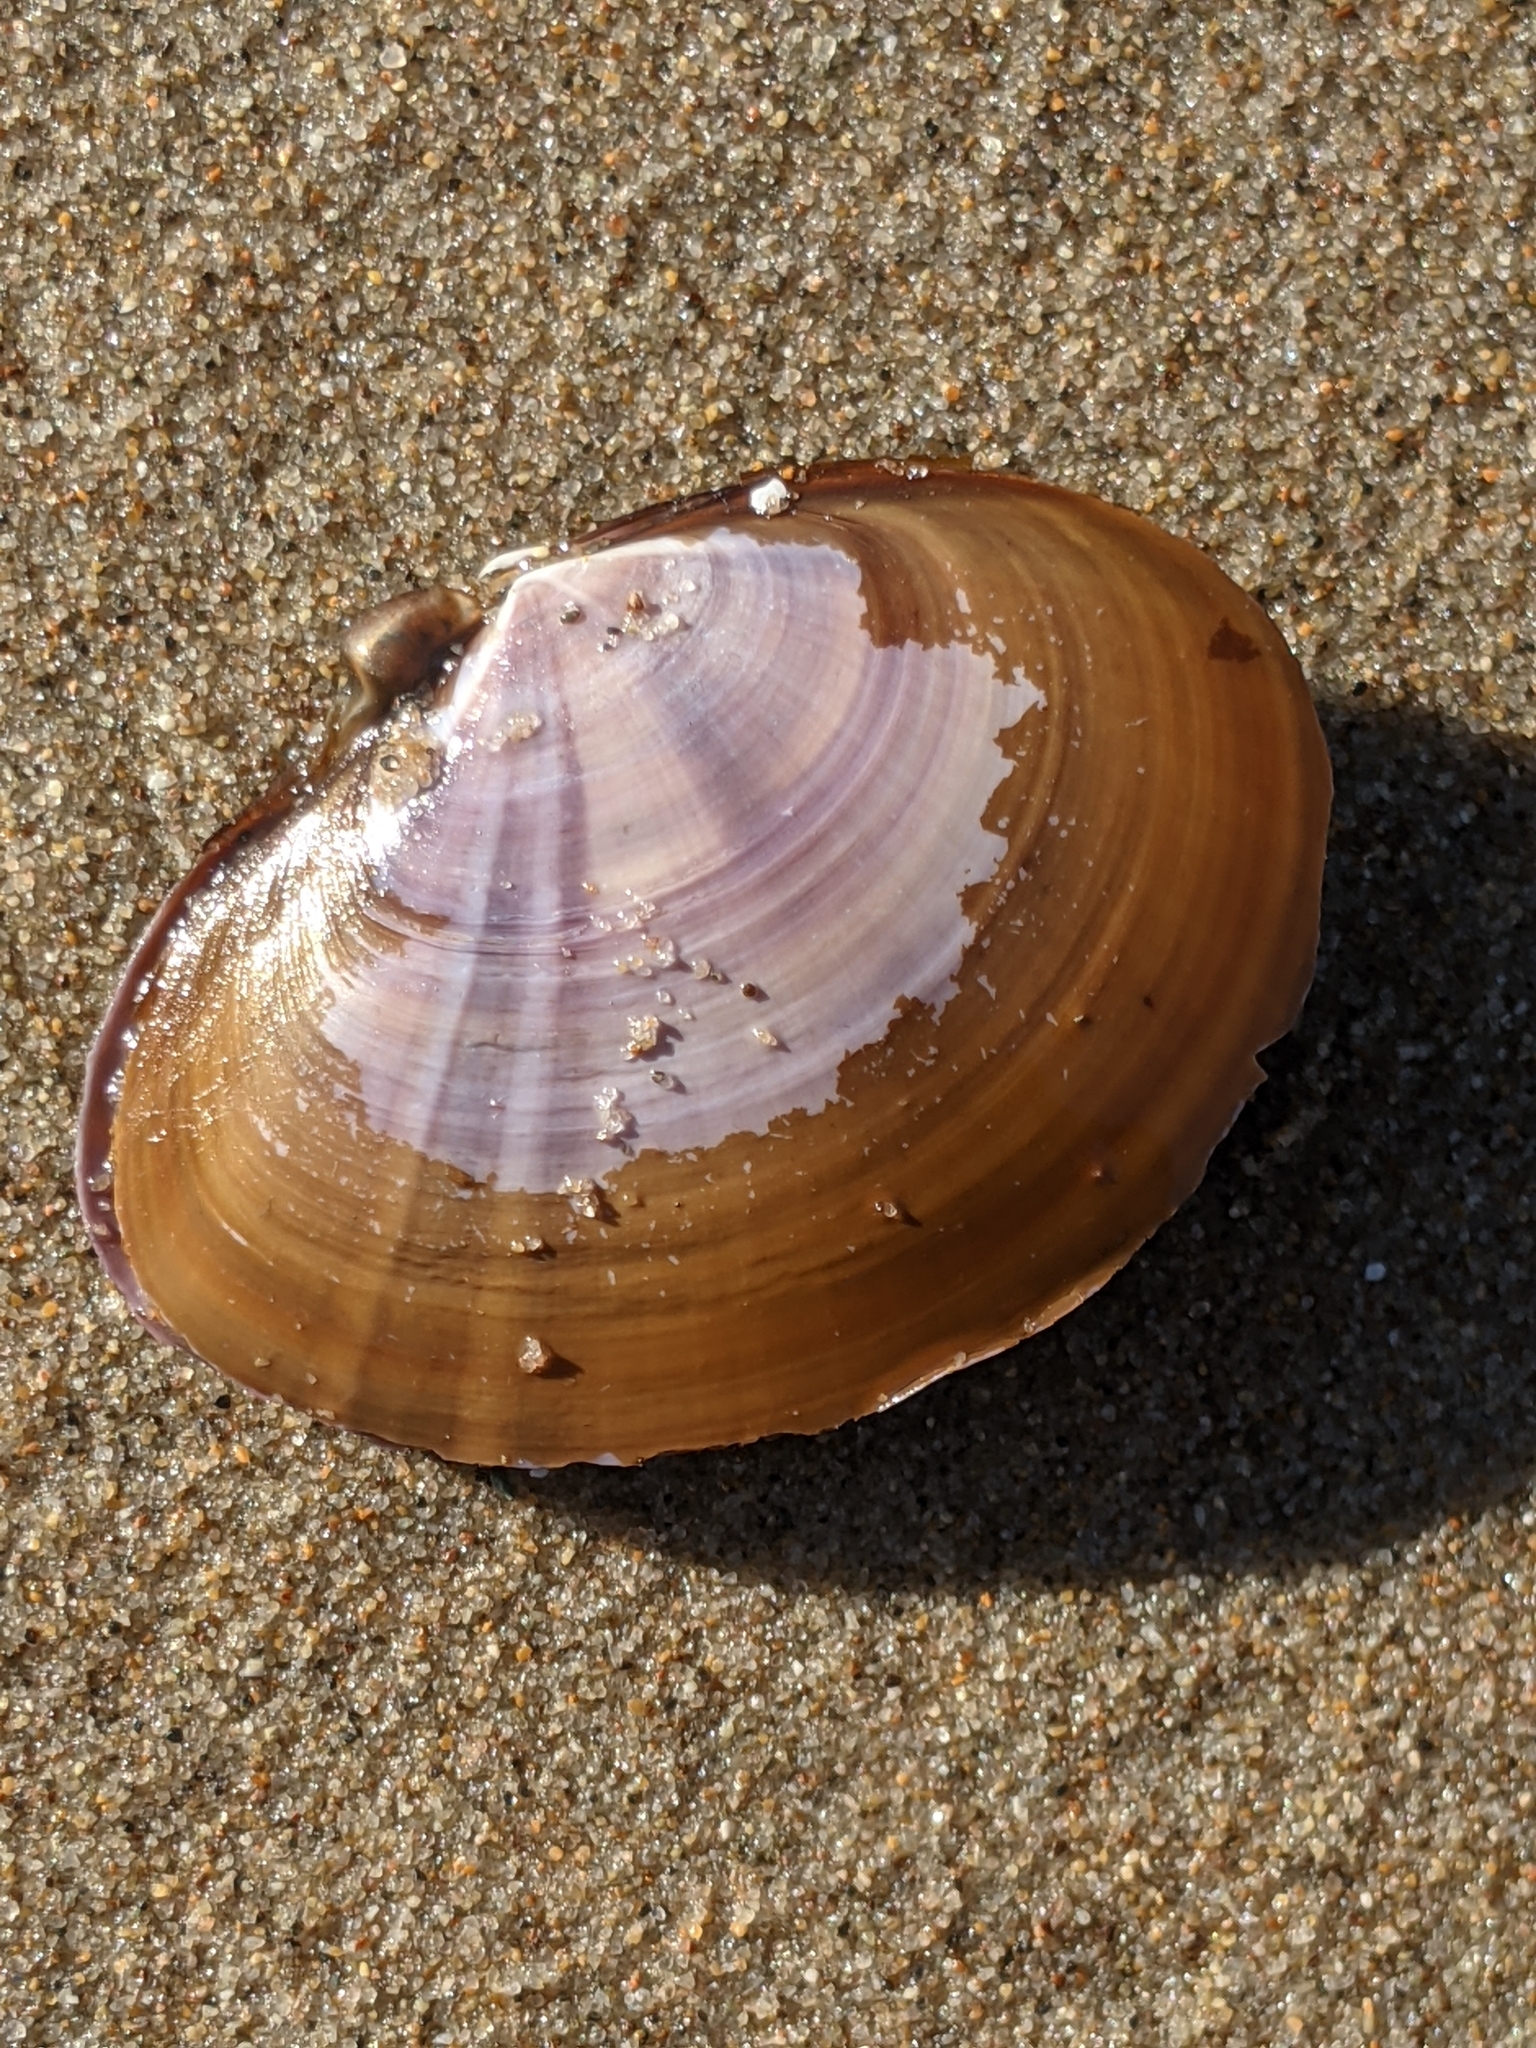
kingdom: Animalia
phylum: Mollusca
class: Bivalvia
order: Cardiida
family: Psammobiidae
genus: Nuttallia
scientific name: Nuttallia nuttallii
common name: California mahogany-clam
